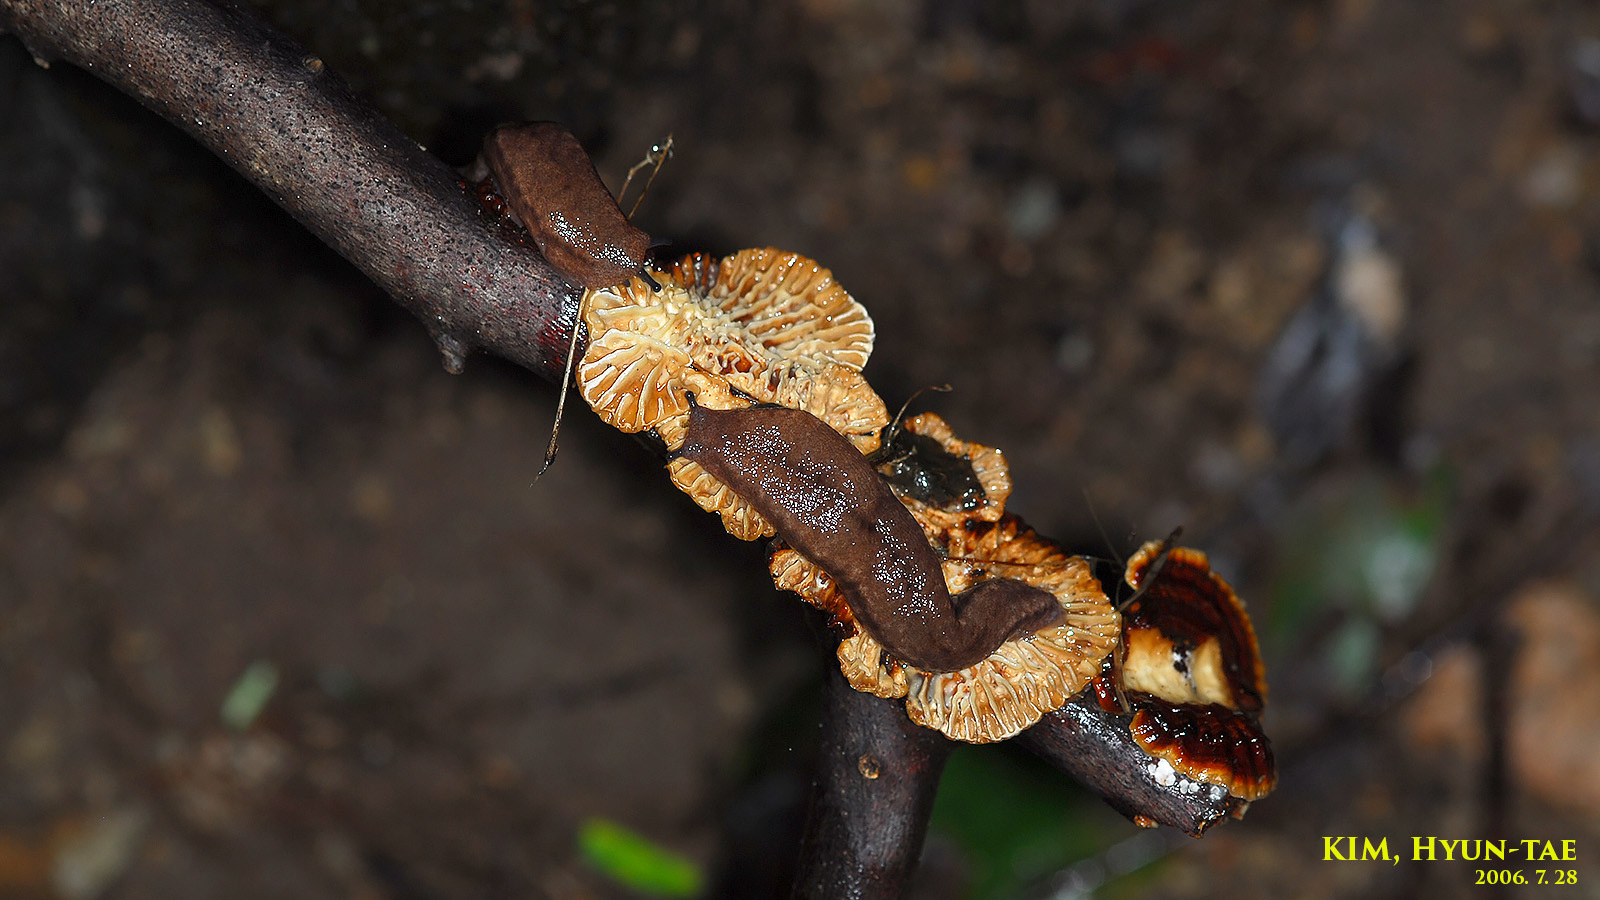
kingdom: Animalia
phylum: Mollusca
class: Gastropoda
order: Stylommatophora
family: Philomycidae
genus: Meghimatium
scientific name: Meghimatium fruhstorferi
